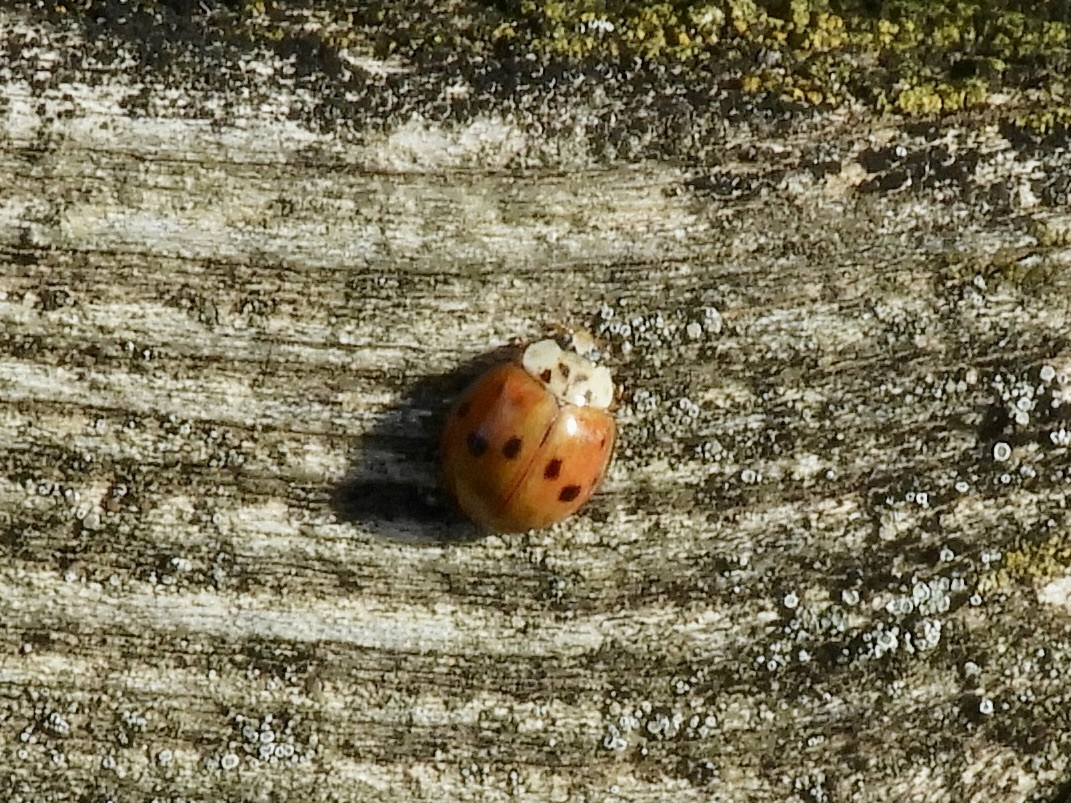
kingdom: Animalia
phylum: Arthropoda
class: Insecta
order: Coleoptera
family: Coccinellidae
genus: Harmonia
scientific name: Harmonia axyridis
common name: Harlequin ladybird
